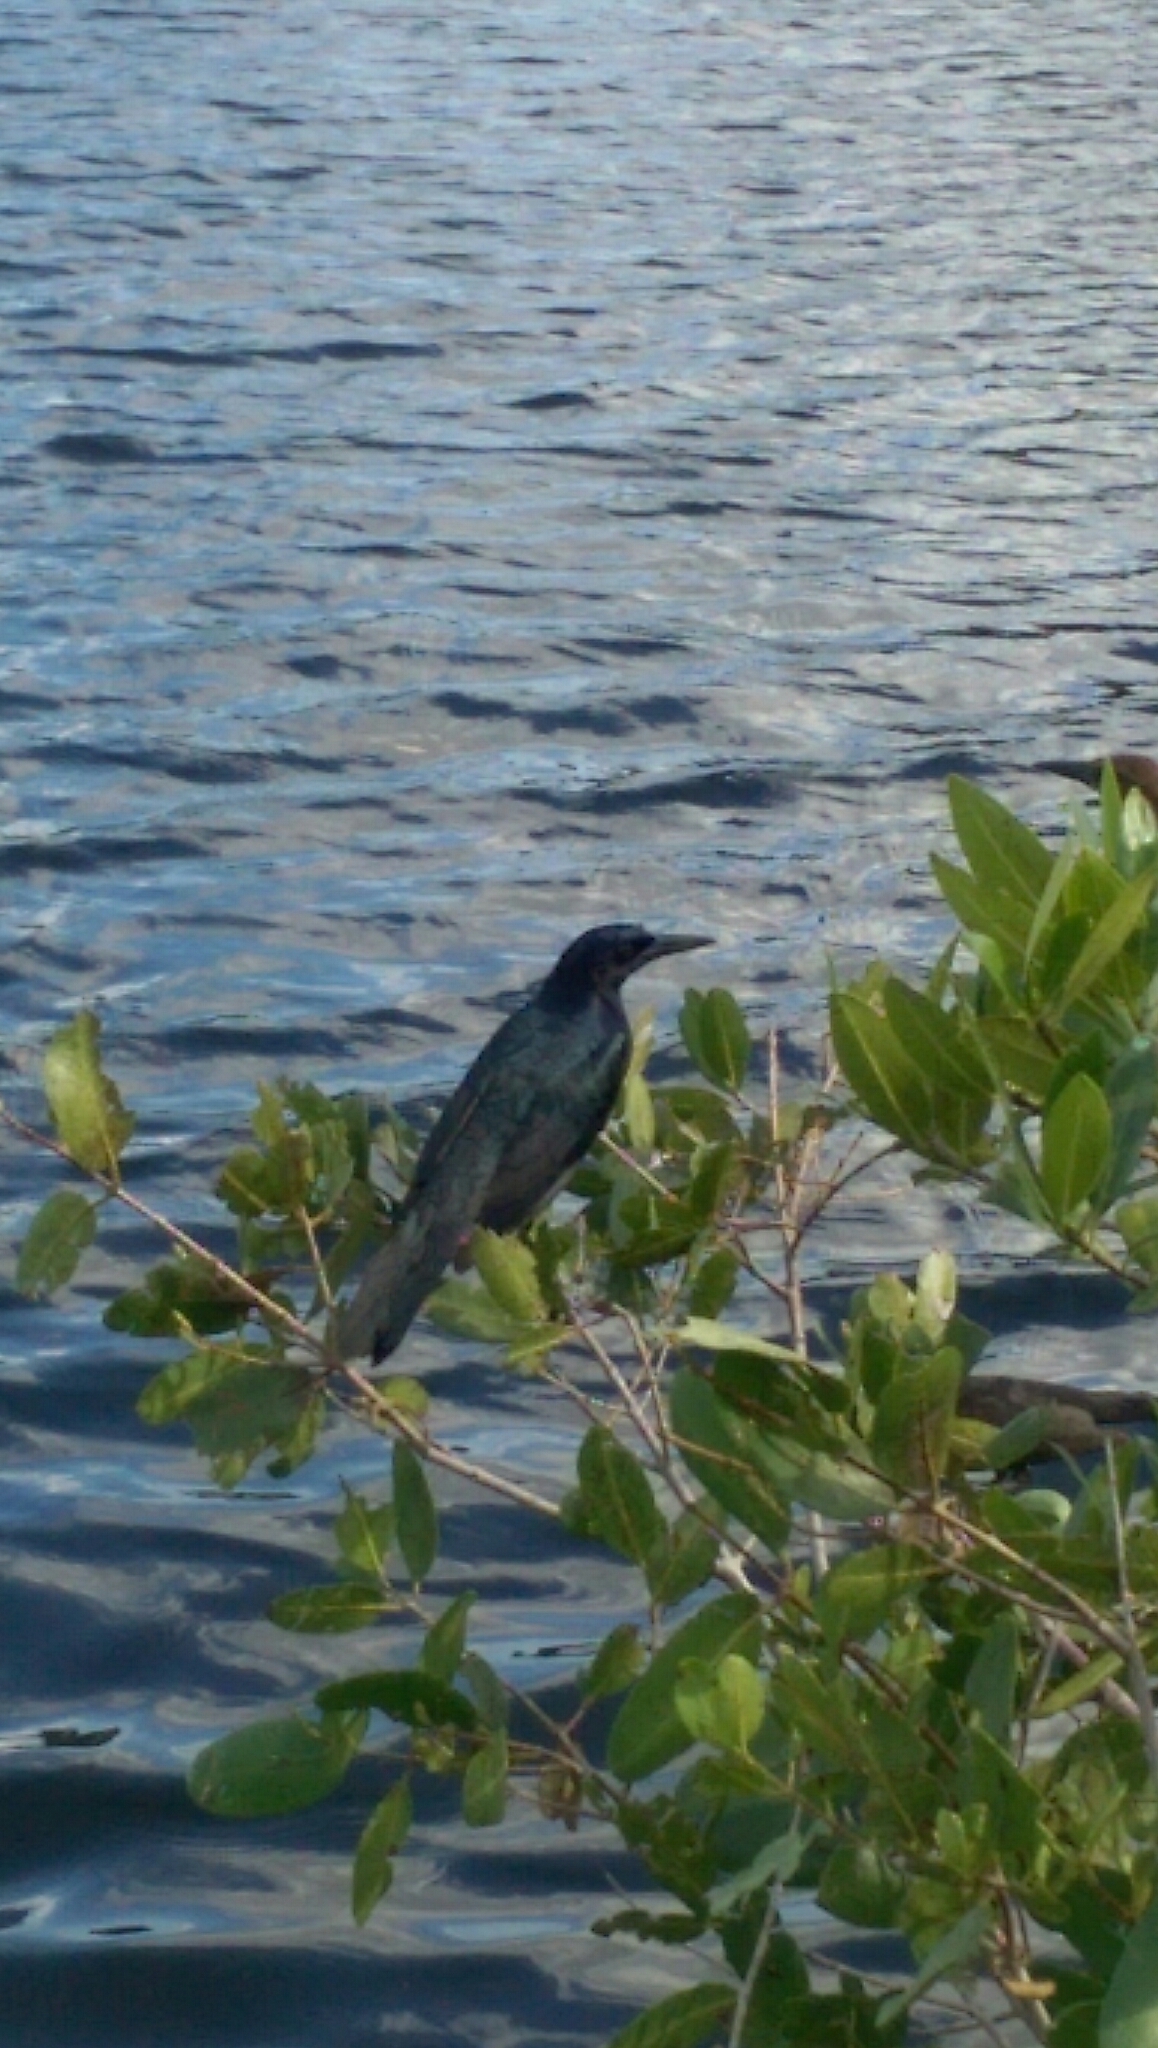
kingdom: Animalia
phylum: Chordata
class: Aves
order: Passeriformes
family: Icteridae
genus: Quiscalus
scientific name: Quiscalus major
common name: Boat-tailed grackle
